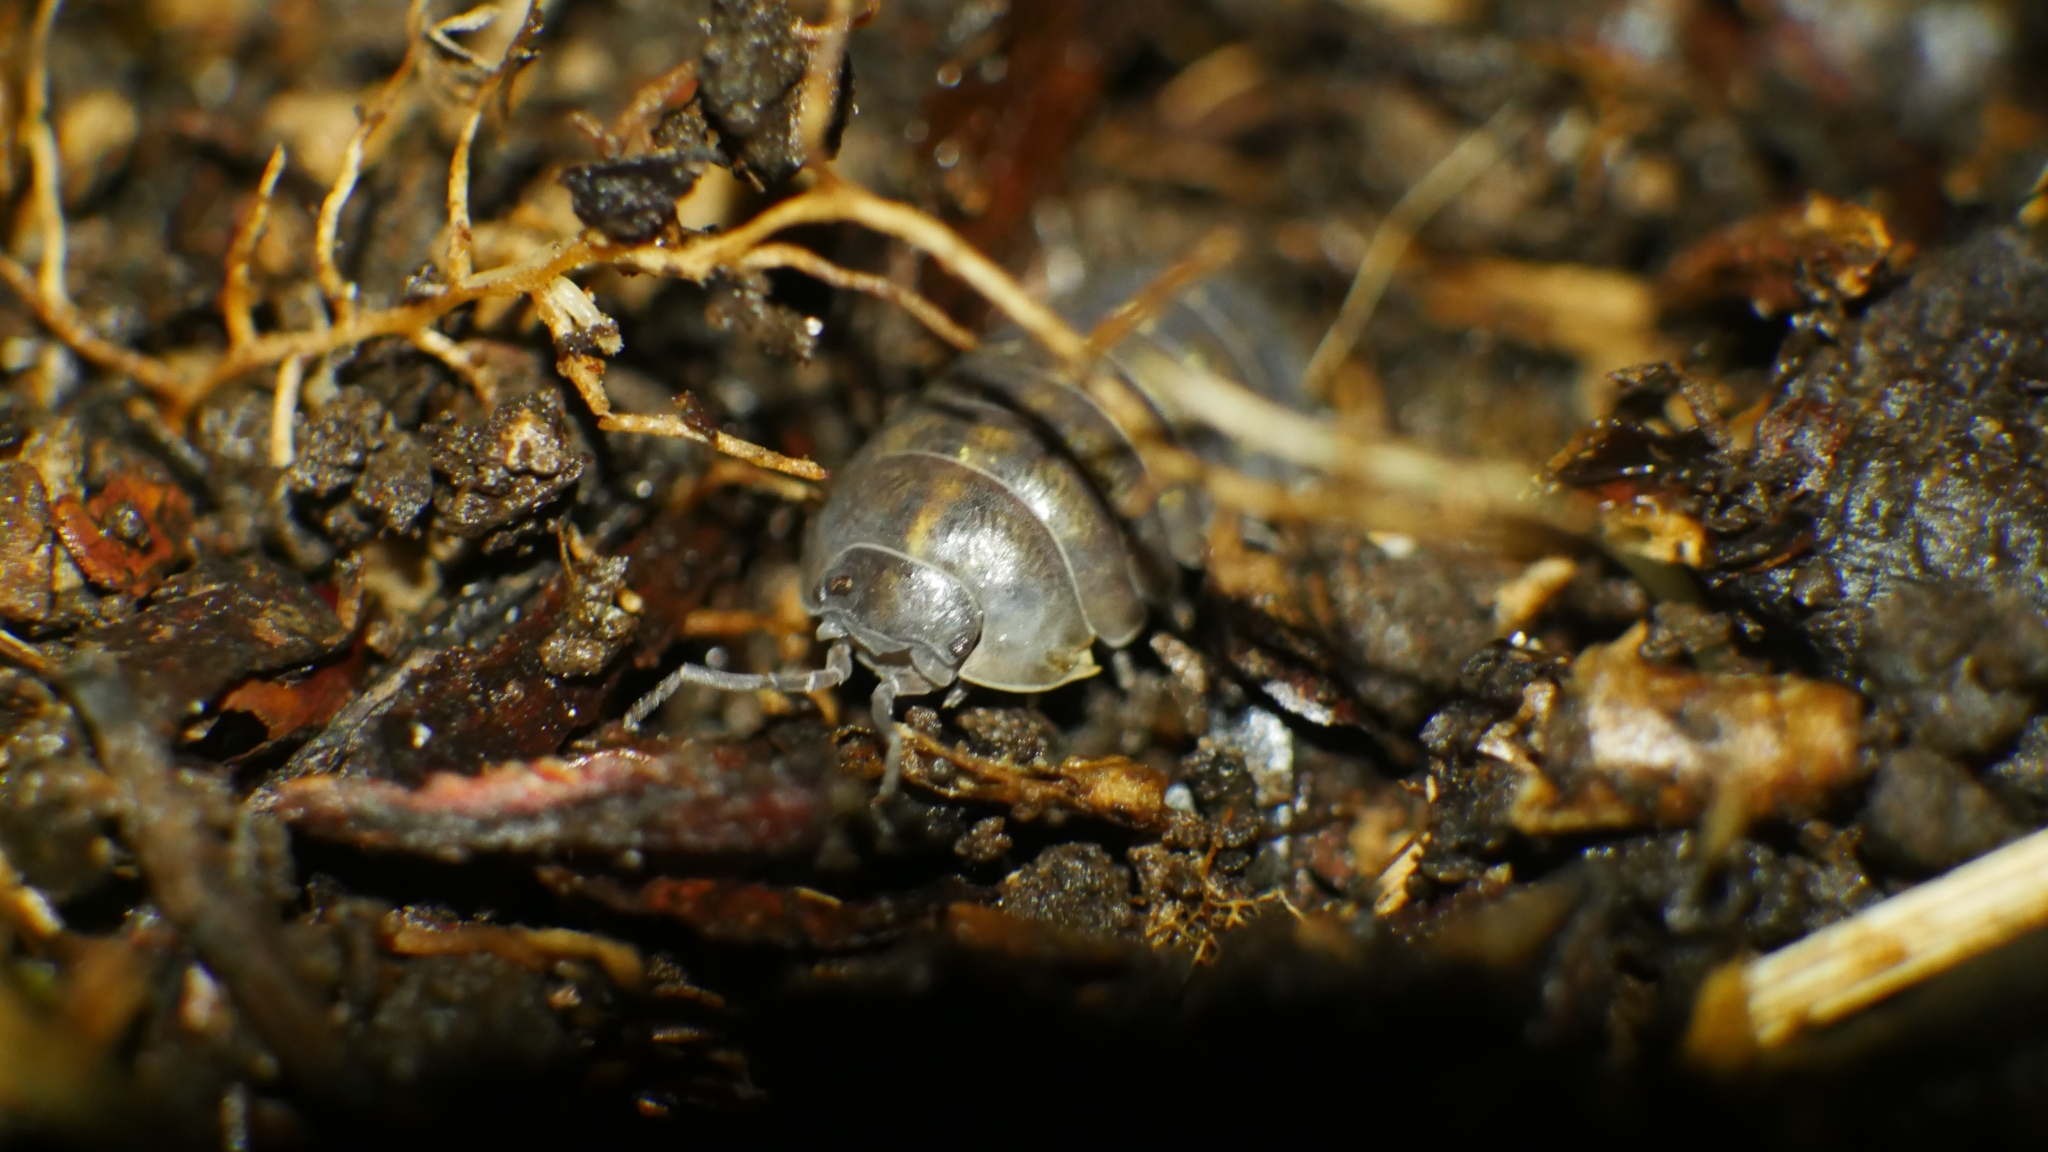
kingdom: Animalia
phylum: Arthropoda
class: Malacostraca
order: Isopoda
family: Armadillidiidae
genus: Armadillidium
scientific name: Armadillidium vulgare
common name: Common pill woodlouse
